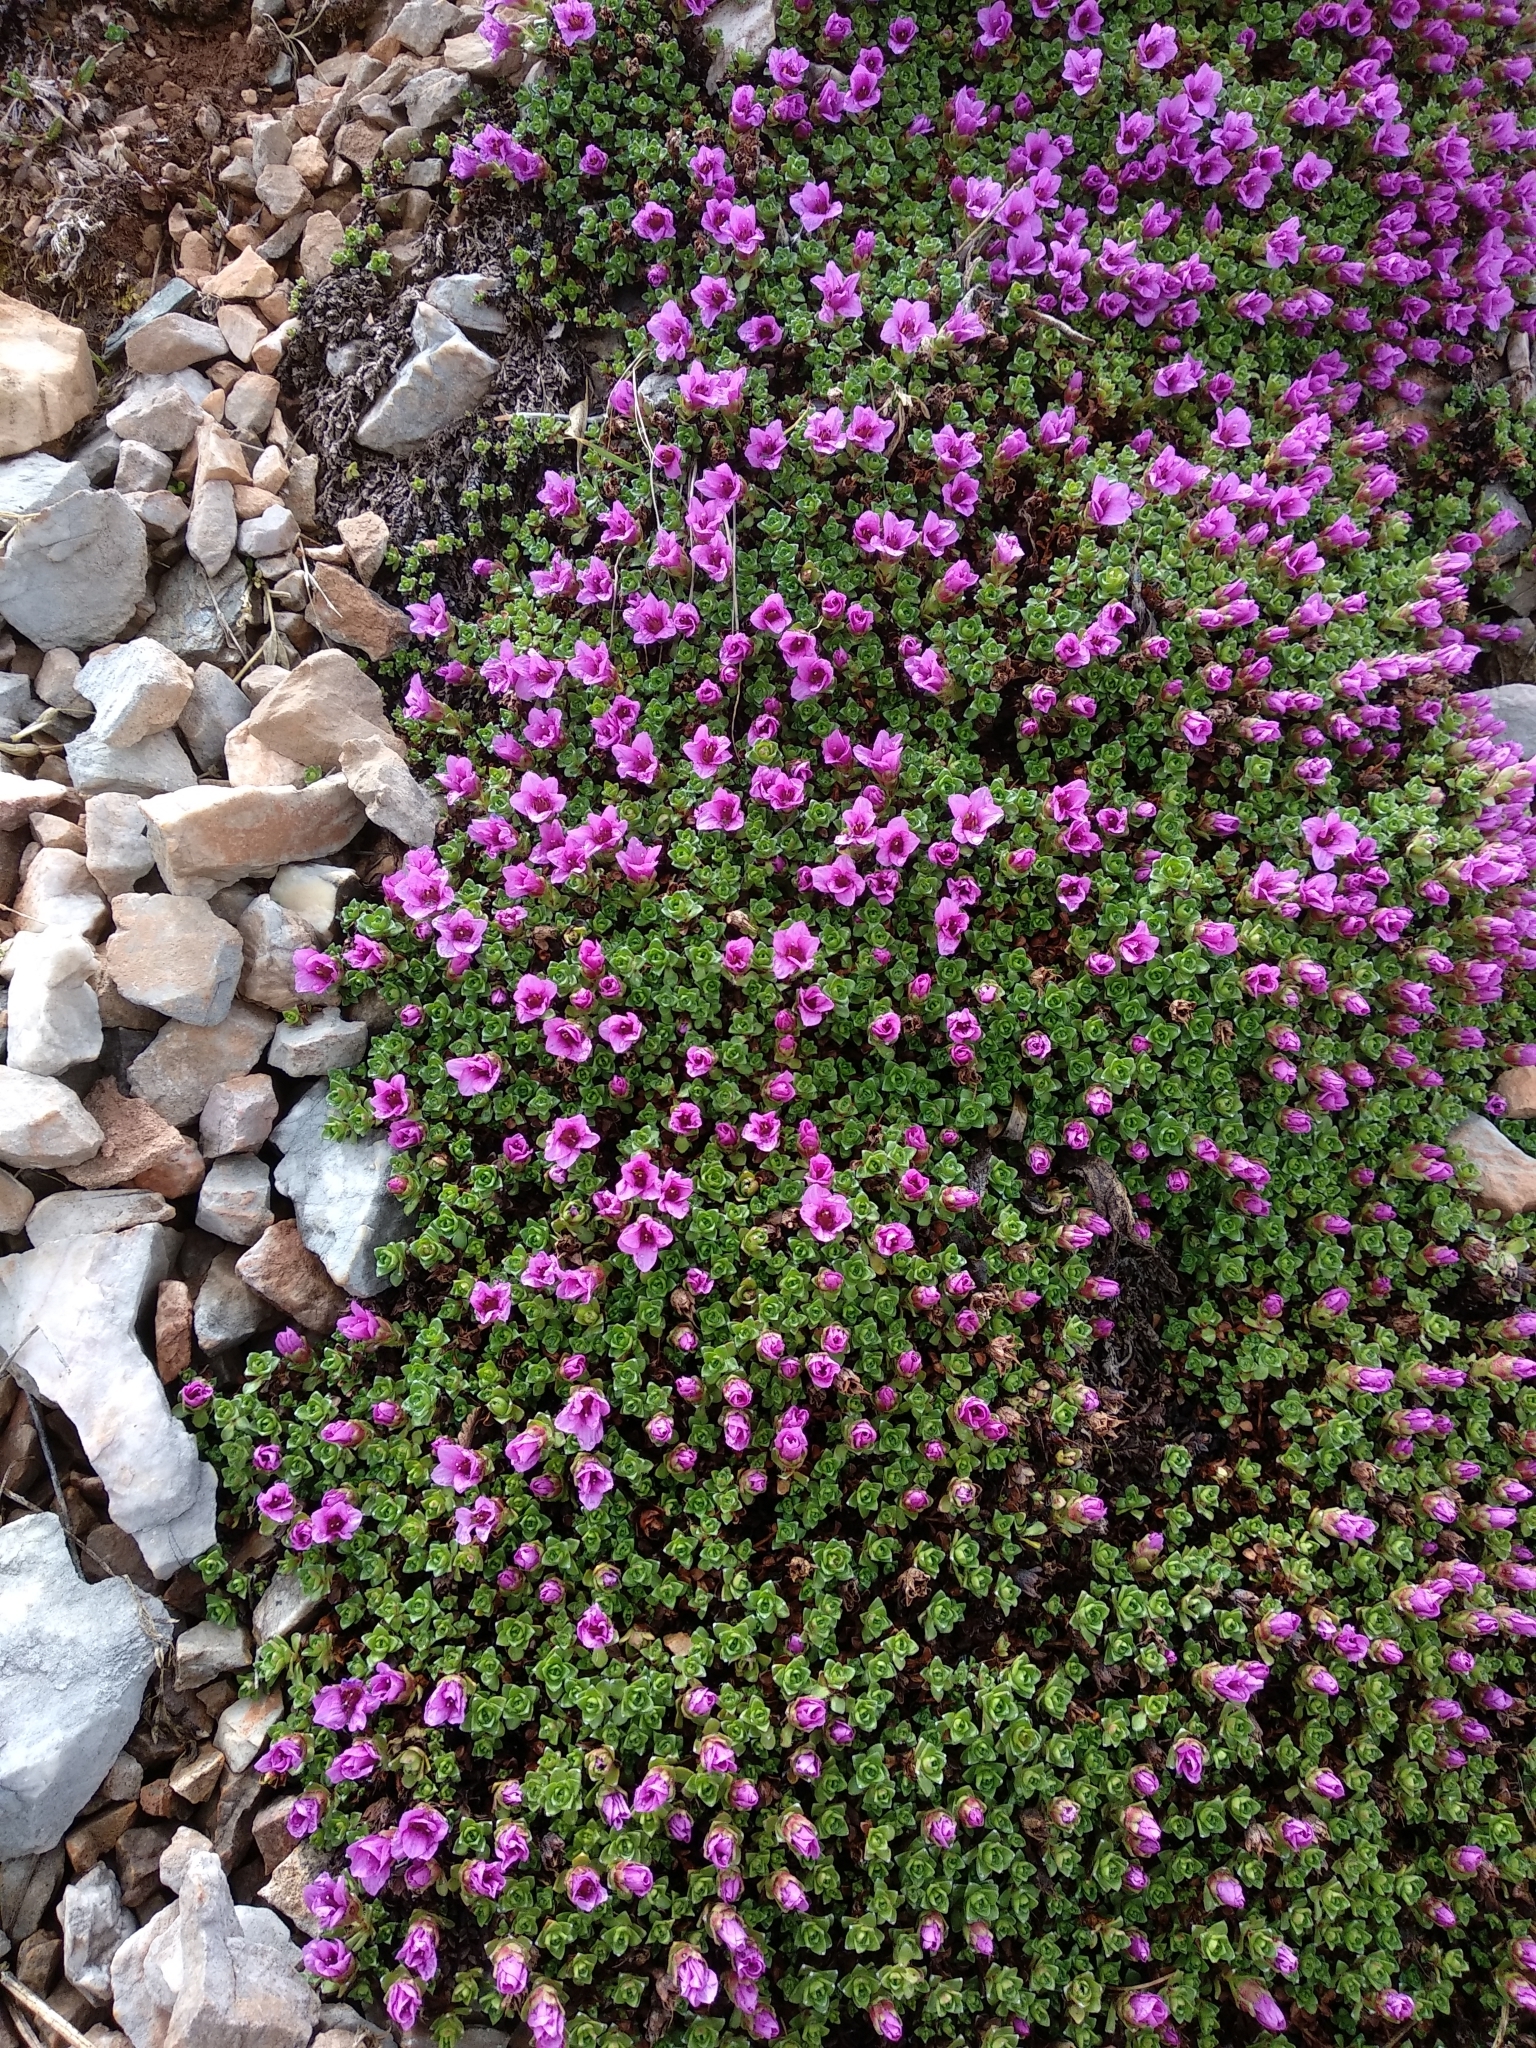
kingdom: Plantae
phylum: Tracheophyta
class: Magnoliopsida
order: Saxifragales
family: Saxifragaceae
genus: Saxifraga
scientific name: Saxifraga oppositifolia
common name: Purple saxifrage
